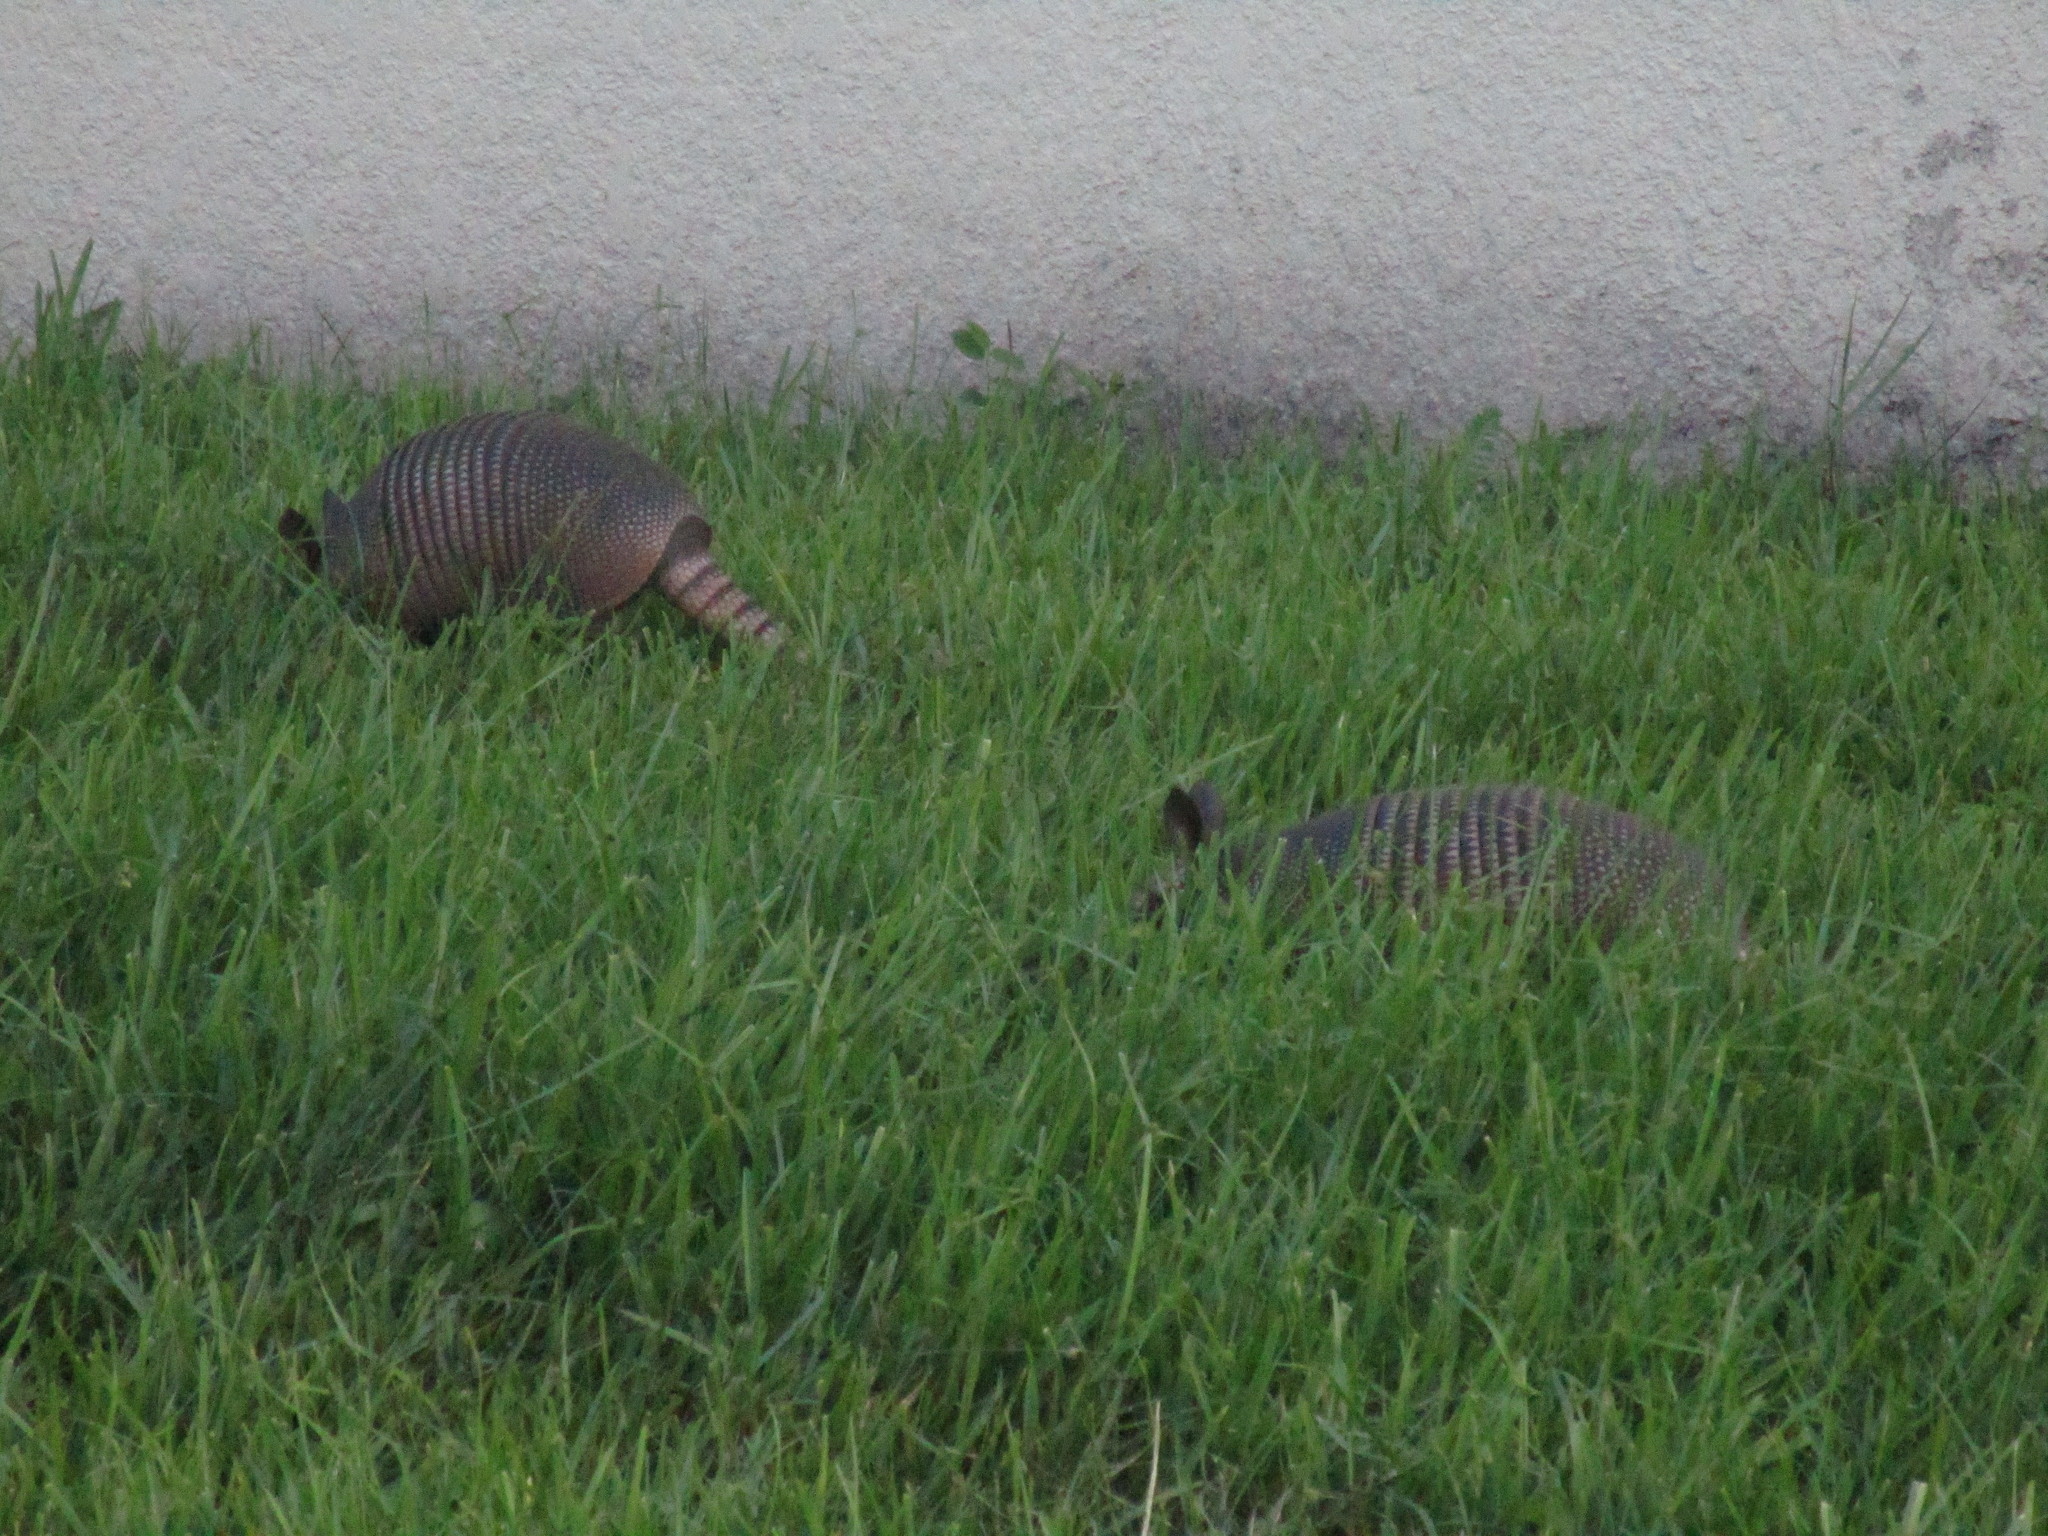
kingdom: Animalia
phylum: Chordata
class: Mammalia
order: Cingulata
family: Dasypodidae
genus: Dasypus
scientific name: Dasypus novemcinctus
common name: Nine-banded armadillo
